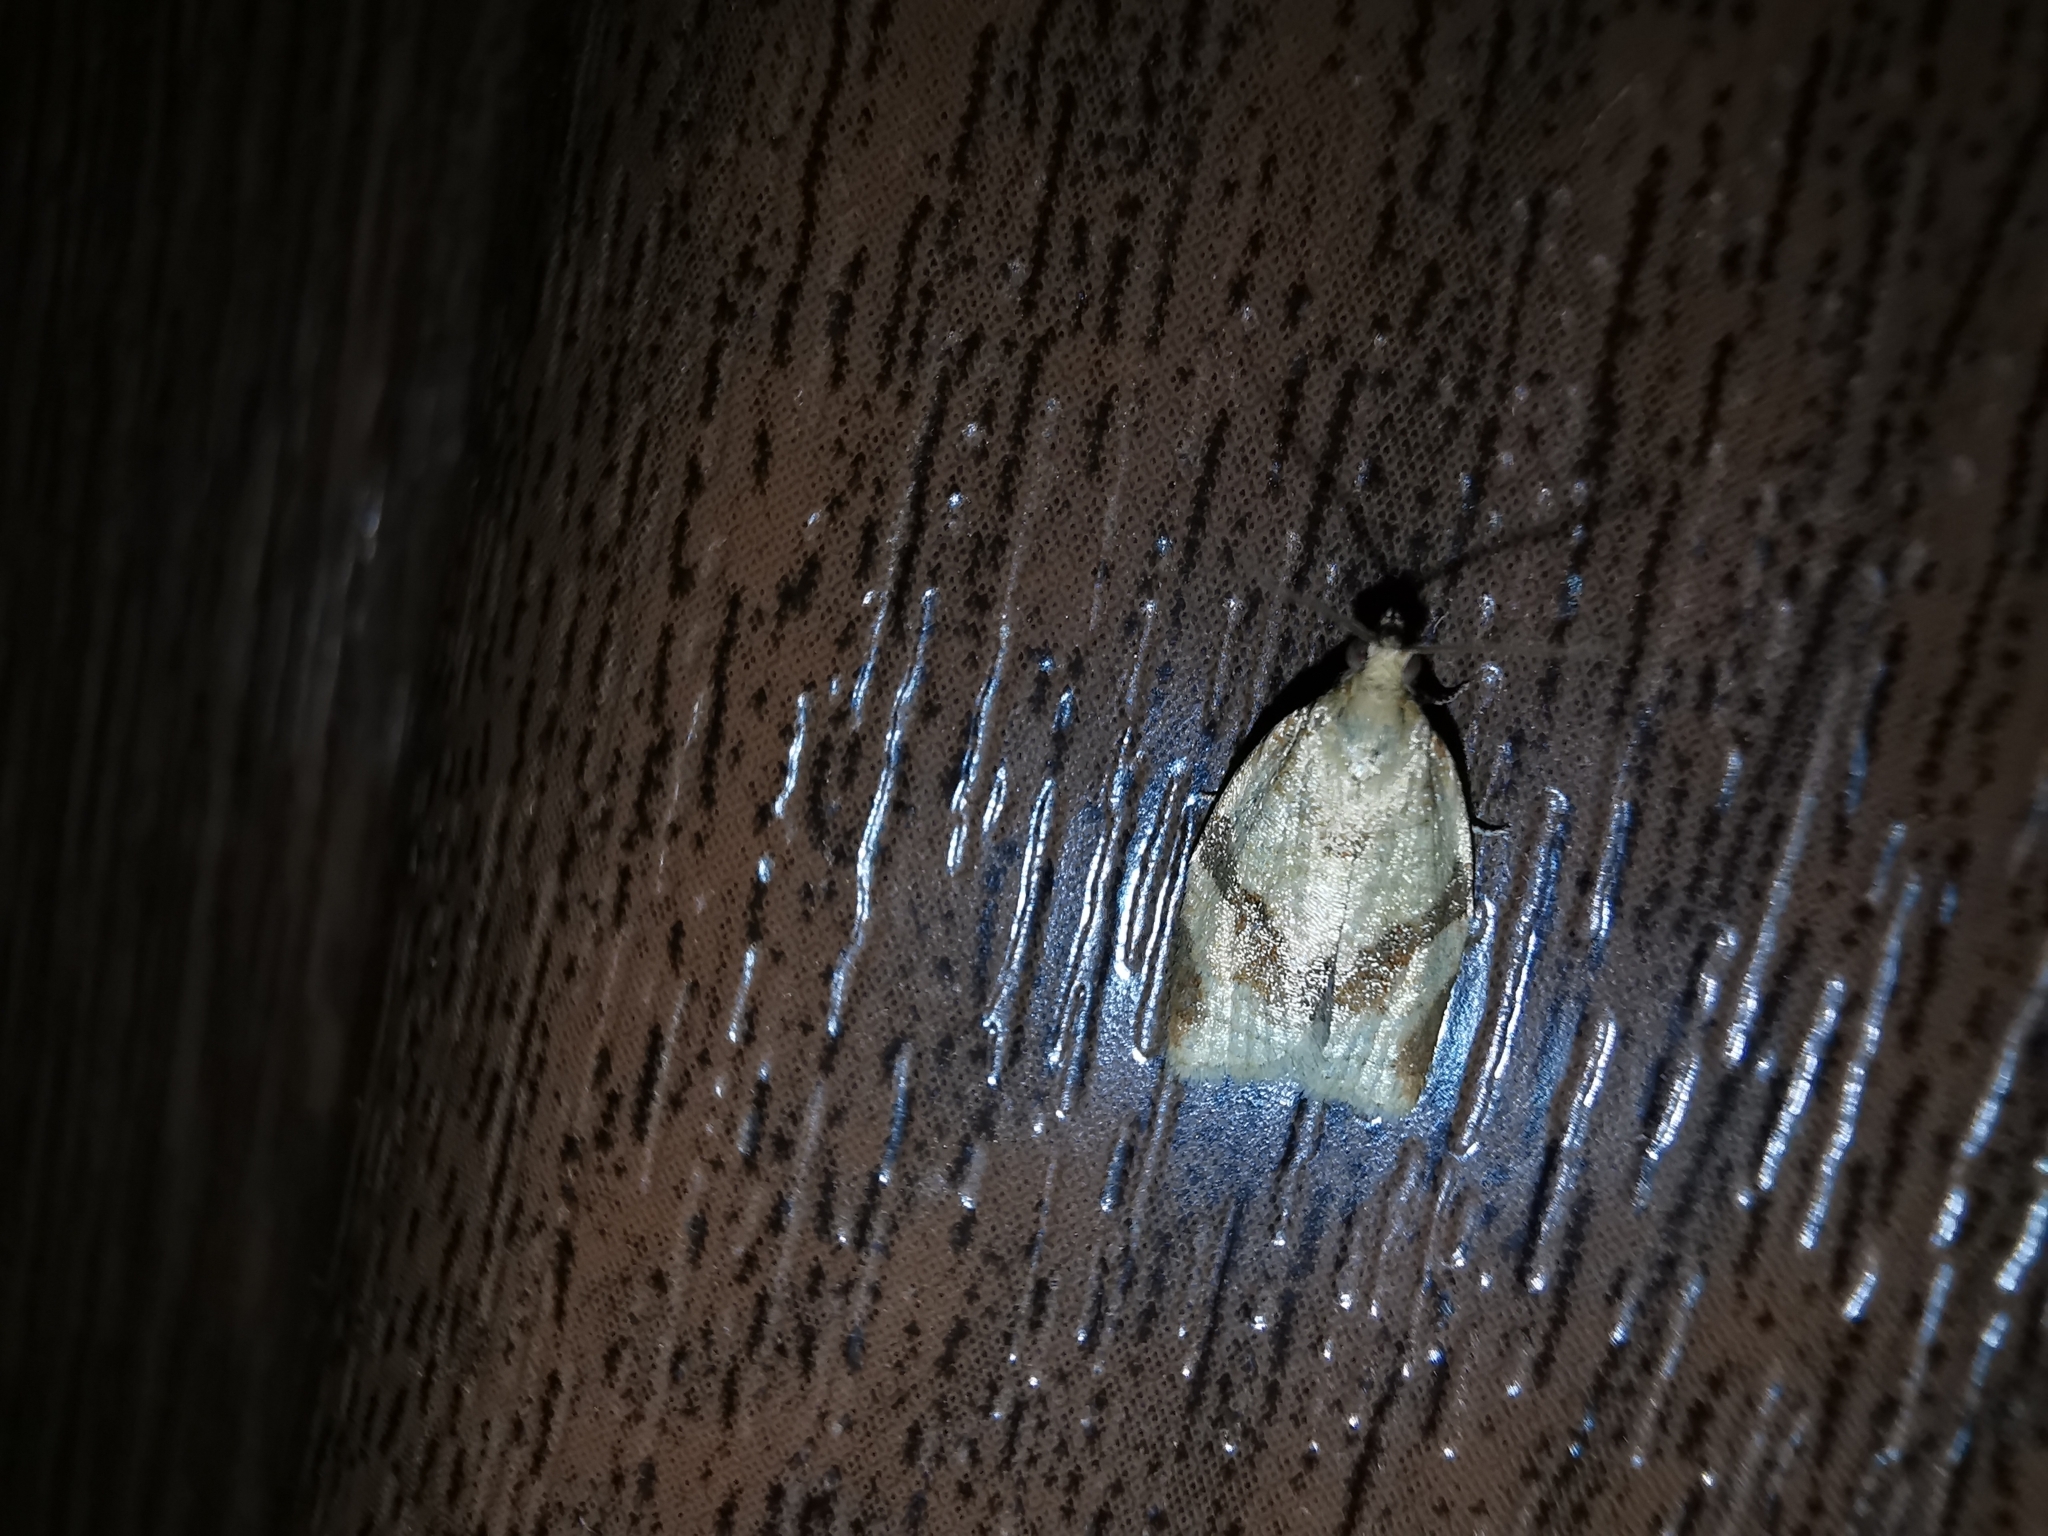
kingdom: Animalia
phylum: Arthropoda
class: Insecta
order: Lepidoptera
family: Tortricidae
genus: Clepsis
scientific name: Clepsis consimilana
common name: Privet tortrix
